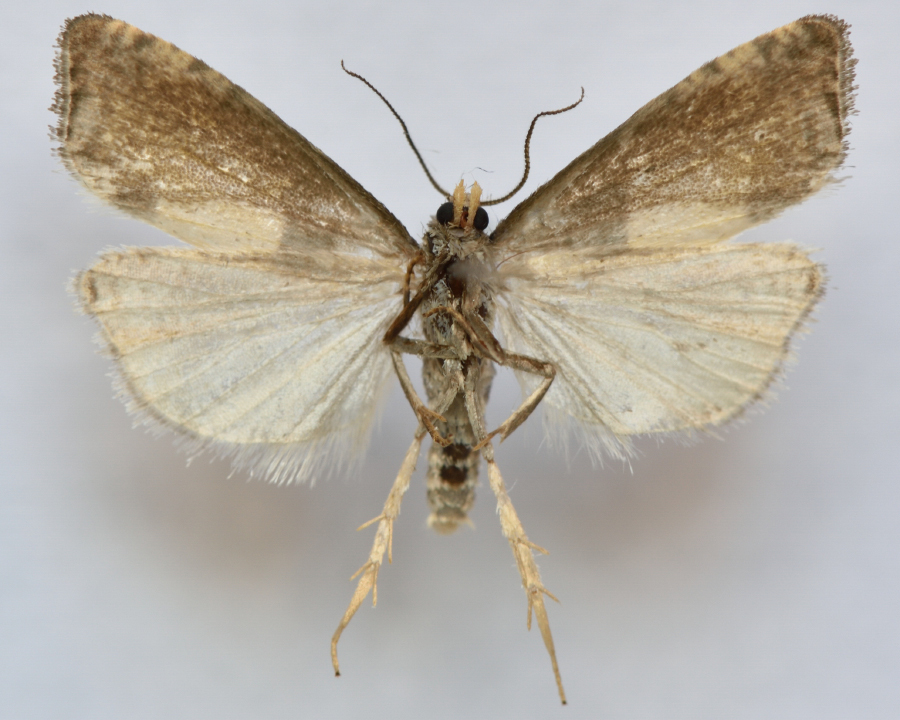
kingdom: Animalia
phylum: Arthropoda
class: Insecta
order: Lepidoptera
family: Tortricidae
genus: Notocelia
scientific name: Notocelia cynosbatella
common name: Yellow-faced bell moth
